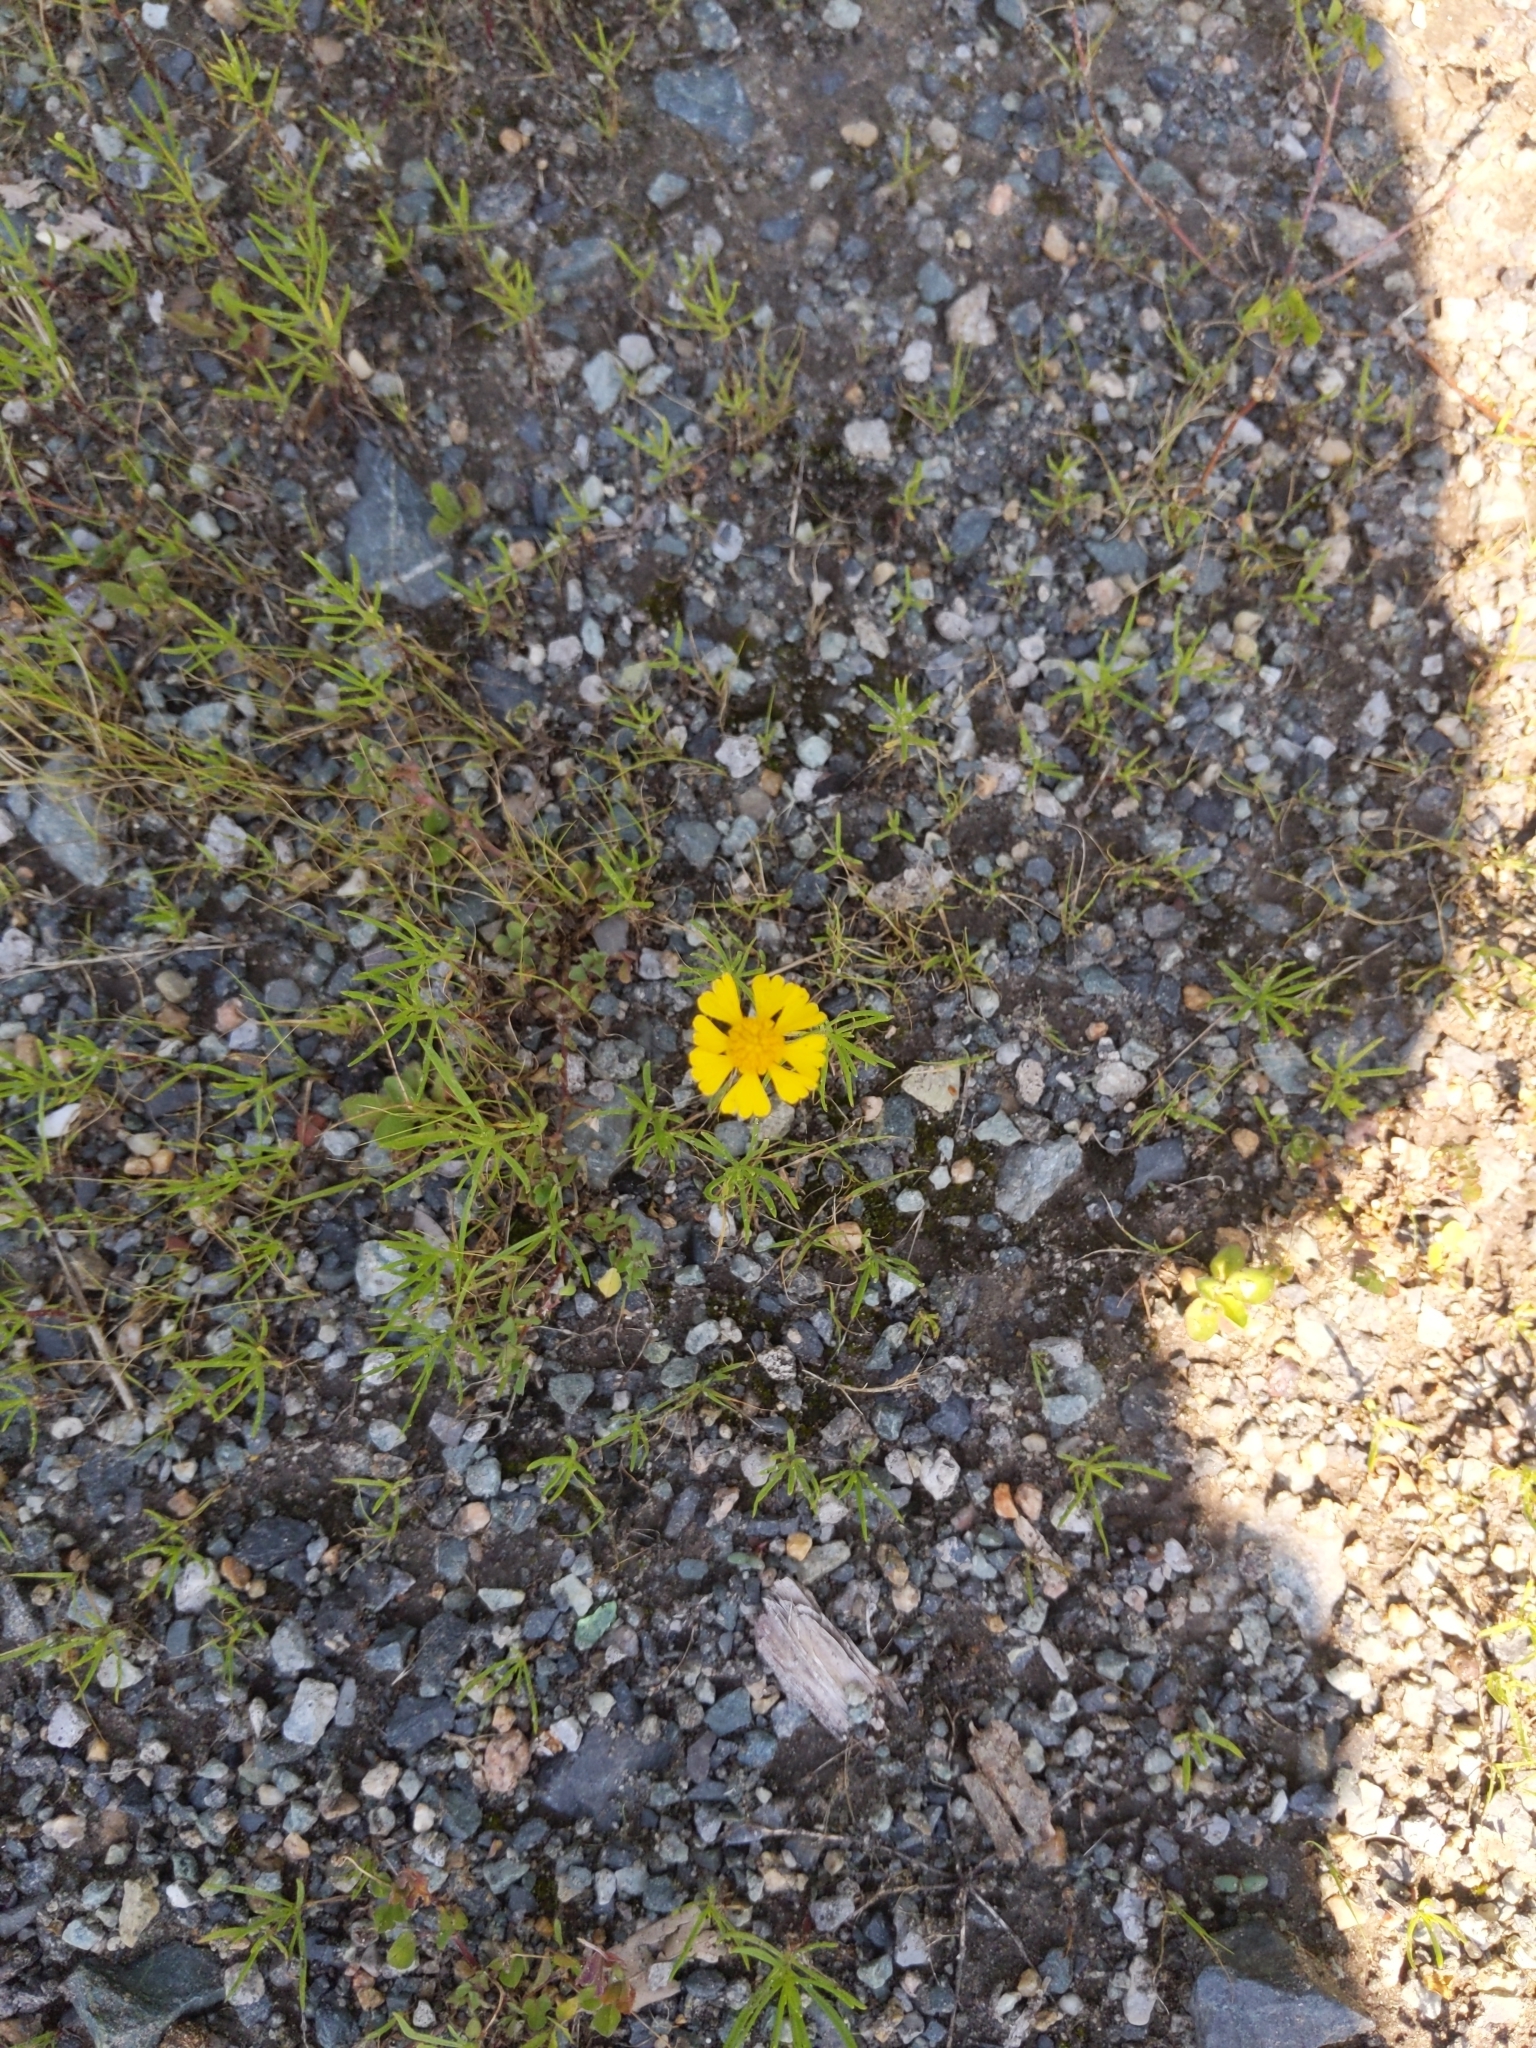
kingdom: Plantae
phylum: Tracheophyta
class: Magnoliopsida
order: Asterales
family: Asteraceae
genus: Helenium
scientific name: Helenium amarum
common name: Bitter sneezeweed
